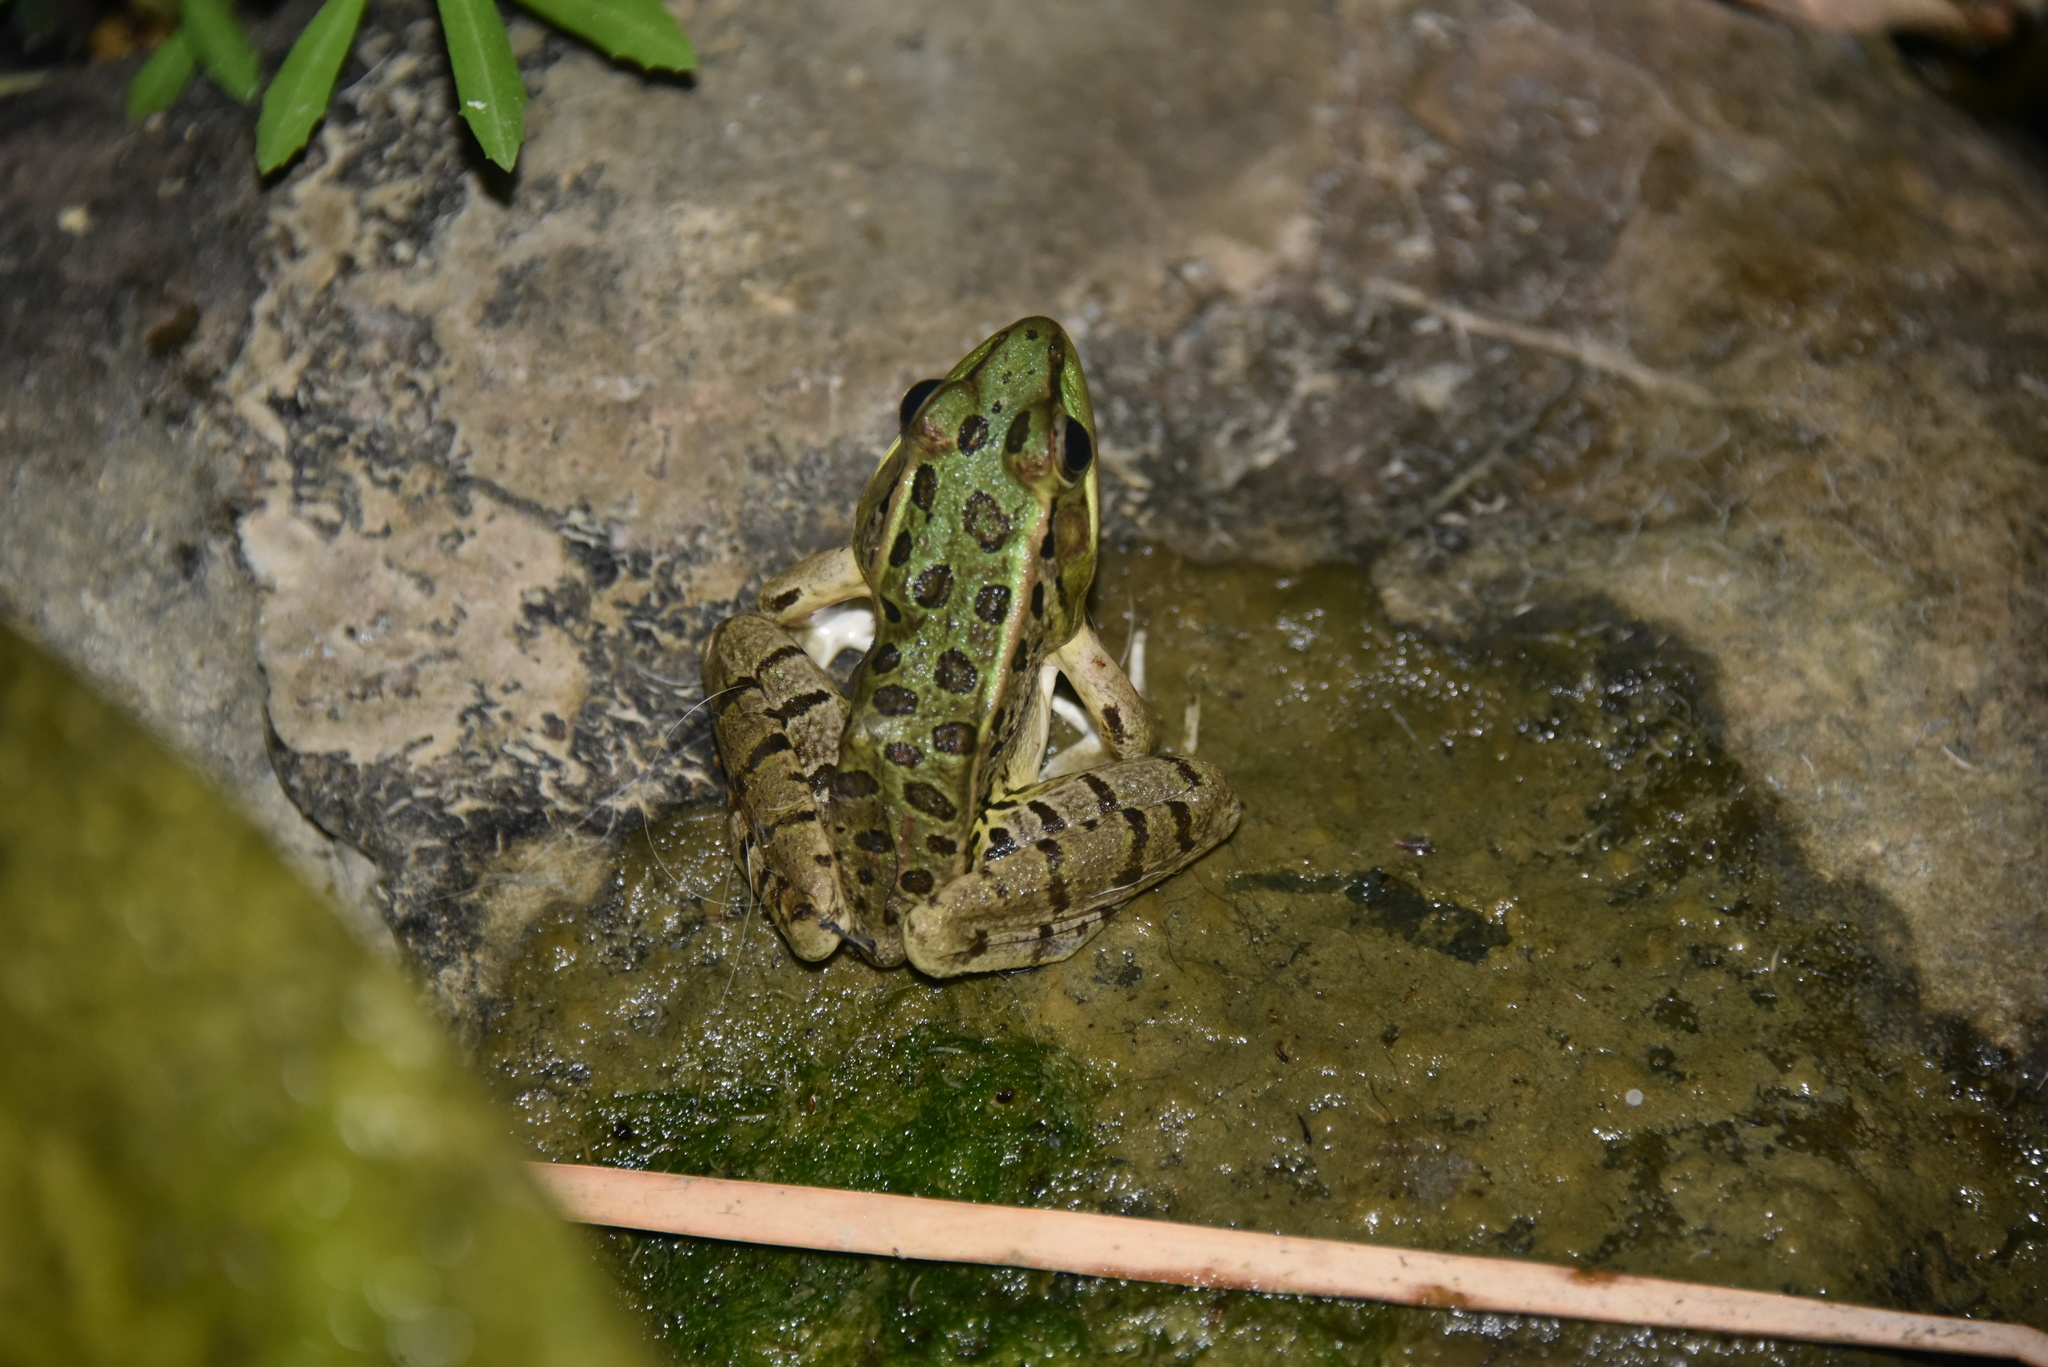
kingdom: Animalia
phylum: Chordata
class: Amphibia
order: Anura
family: Ranidae
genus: Lithobates
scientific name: Lithobates berlandieri
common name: Rio grande leopard frog
